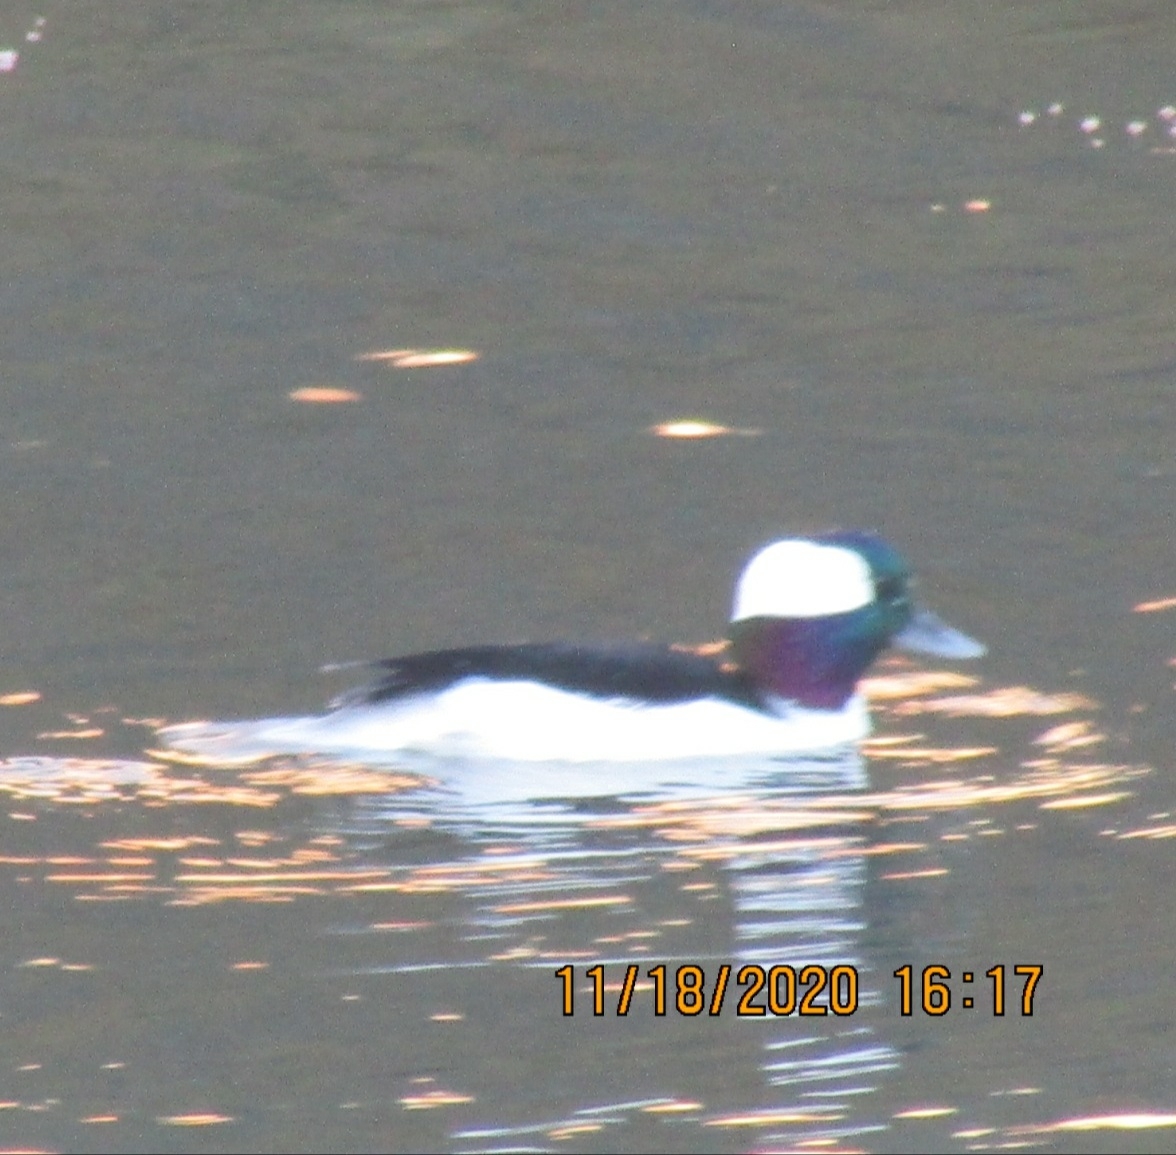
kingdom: Animalia
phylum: Chordata
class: Aves
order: Anseriformes
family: Anatidae
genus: Bucephala
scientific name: Bucephala albeola
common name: Bufflehead
